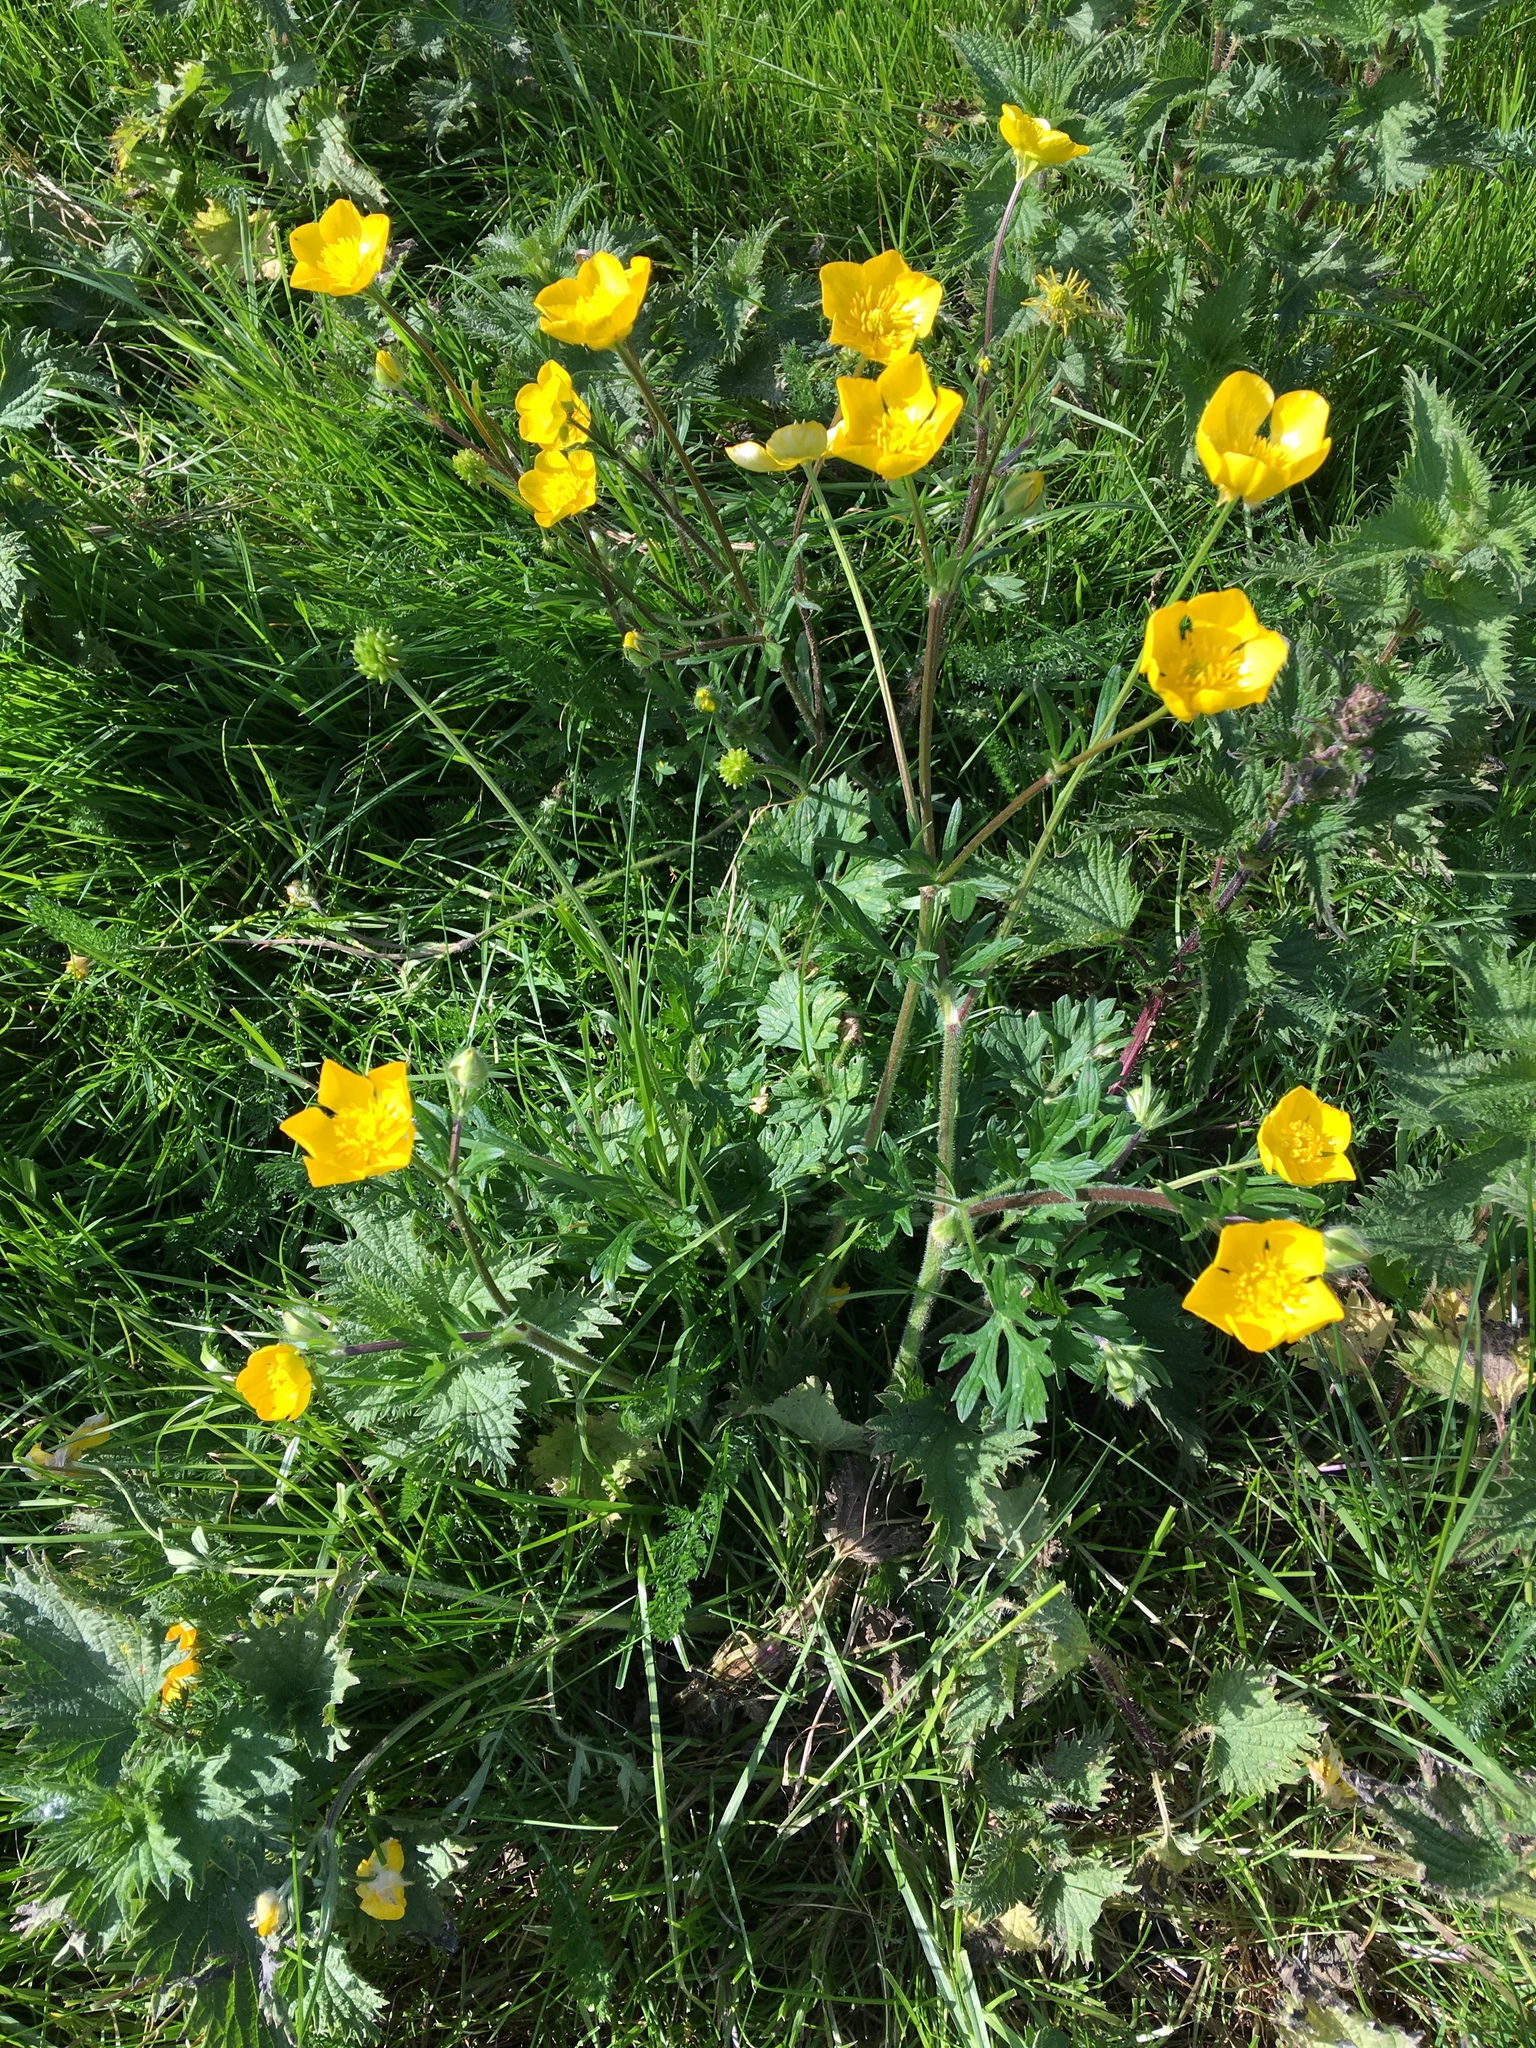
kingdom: Plantae
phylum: Tracheophyta
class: Magnoliopsida
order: Ranunculales
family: Ranunculaceae
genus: Ranunculus
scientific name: Ranunculus bulbosus
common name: Bulbous buttercup
